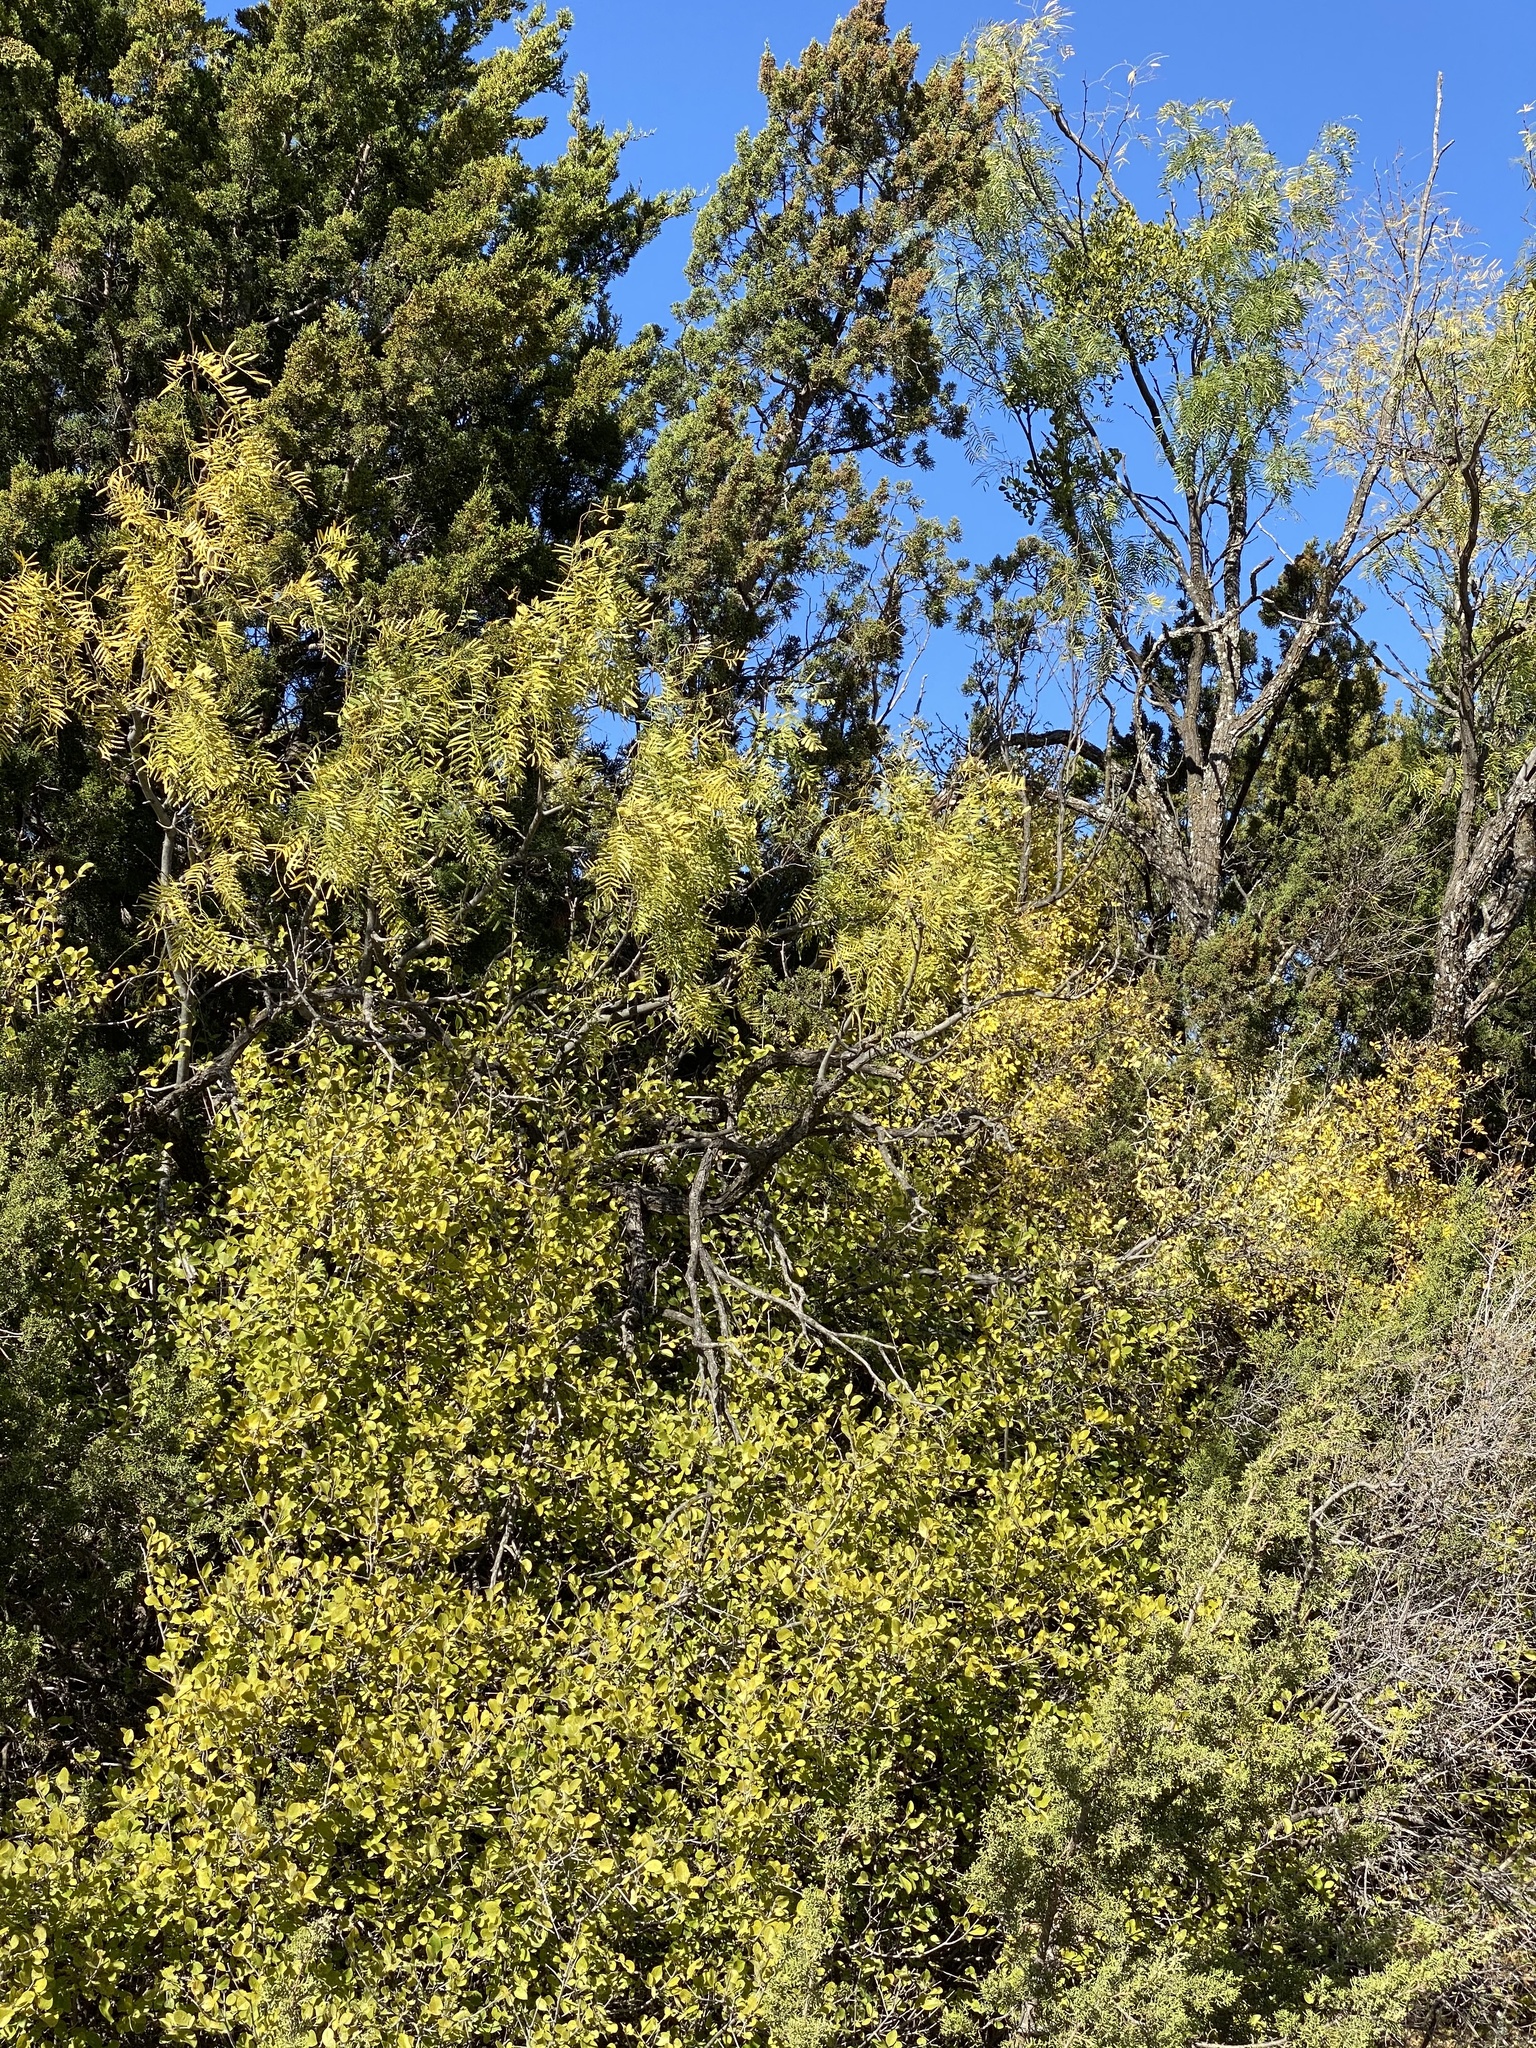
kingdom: Plantae
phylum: Tracheophyta
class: Magnoliopsida
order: Fabales
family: Fabaceae
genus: Prosopis
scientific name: Prosopis glandulosa
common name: Honey mesquite
